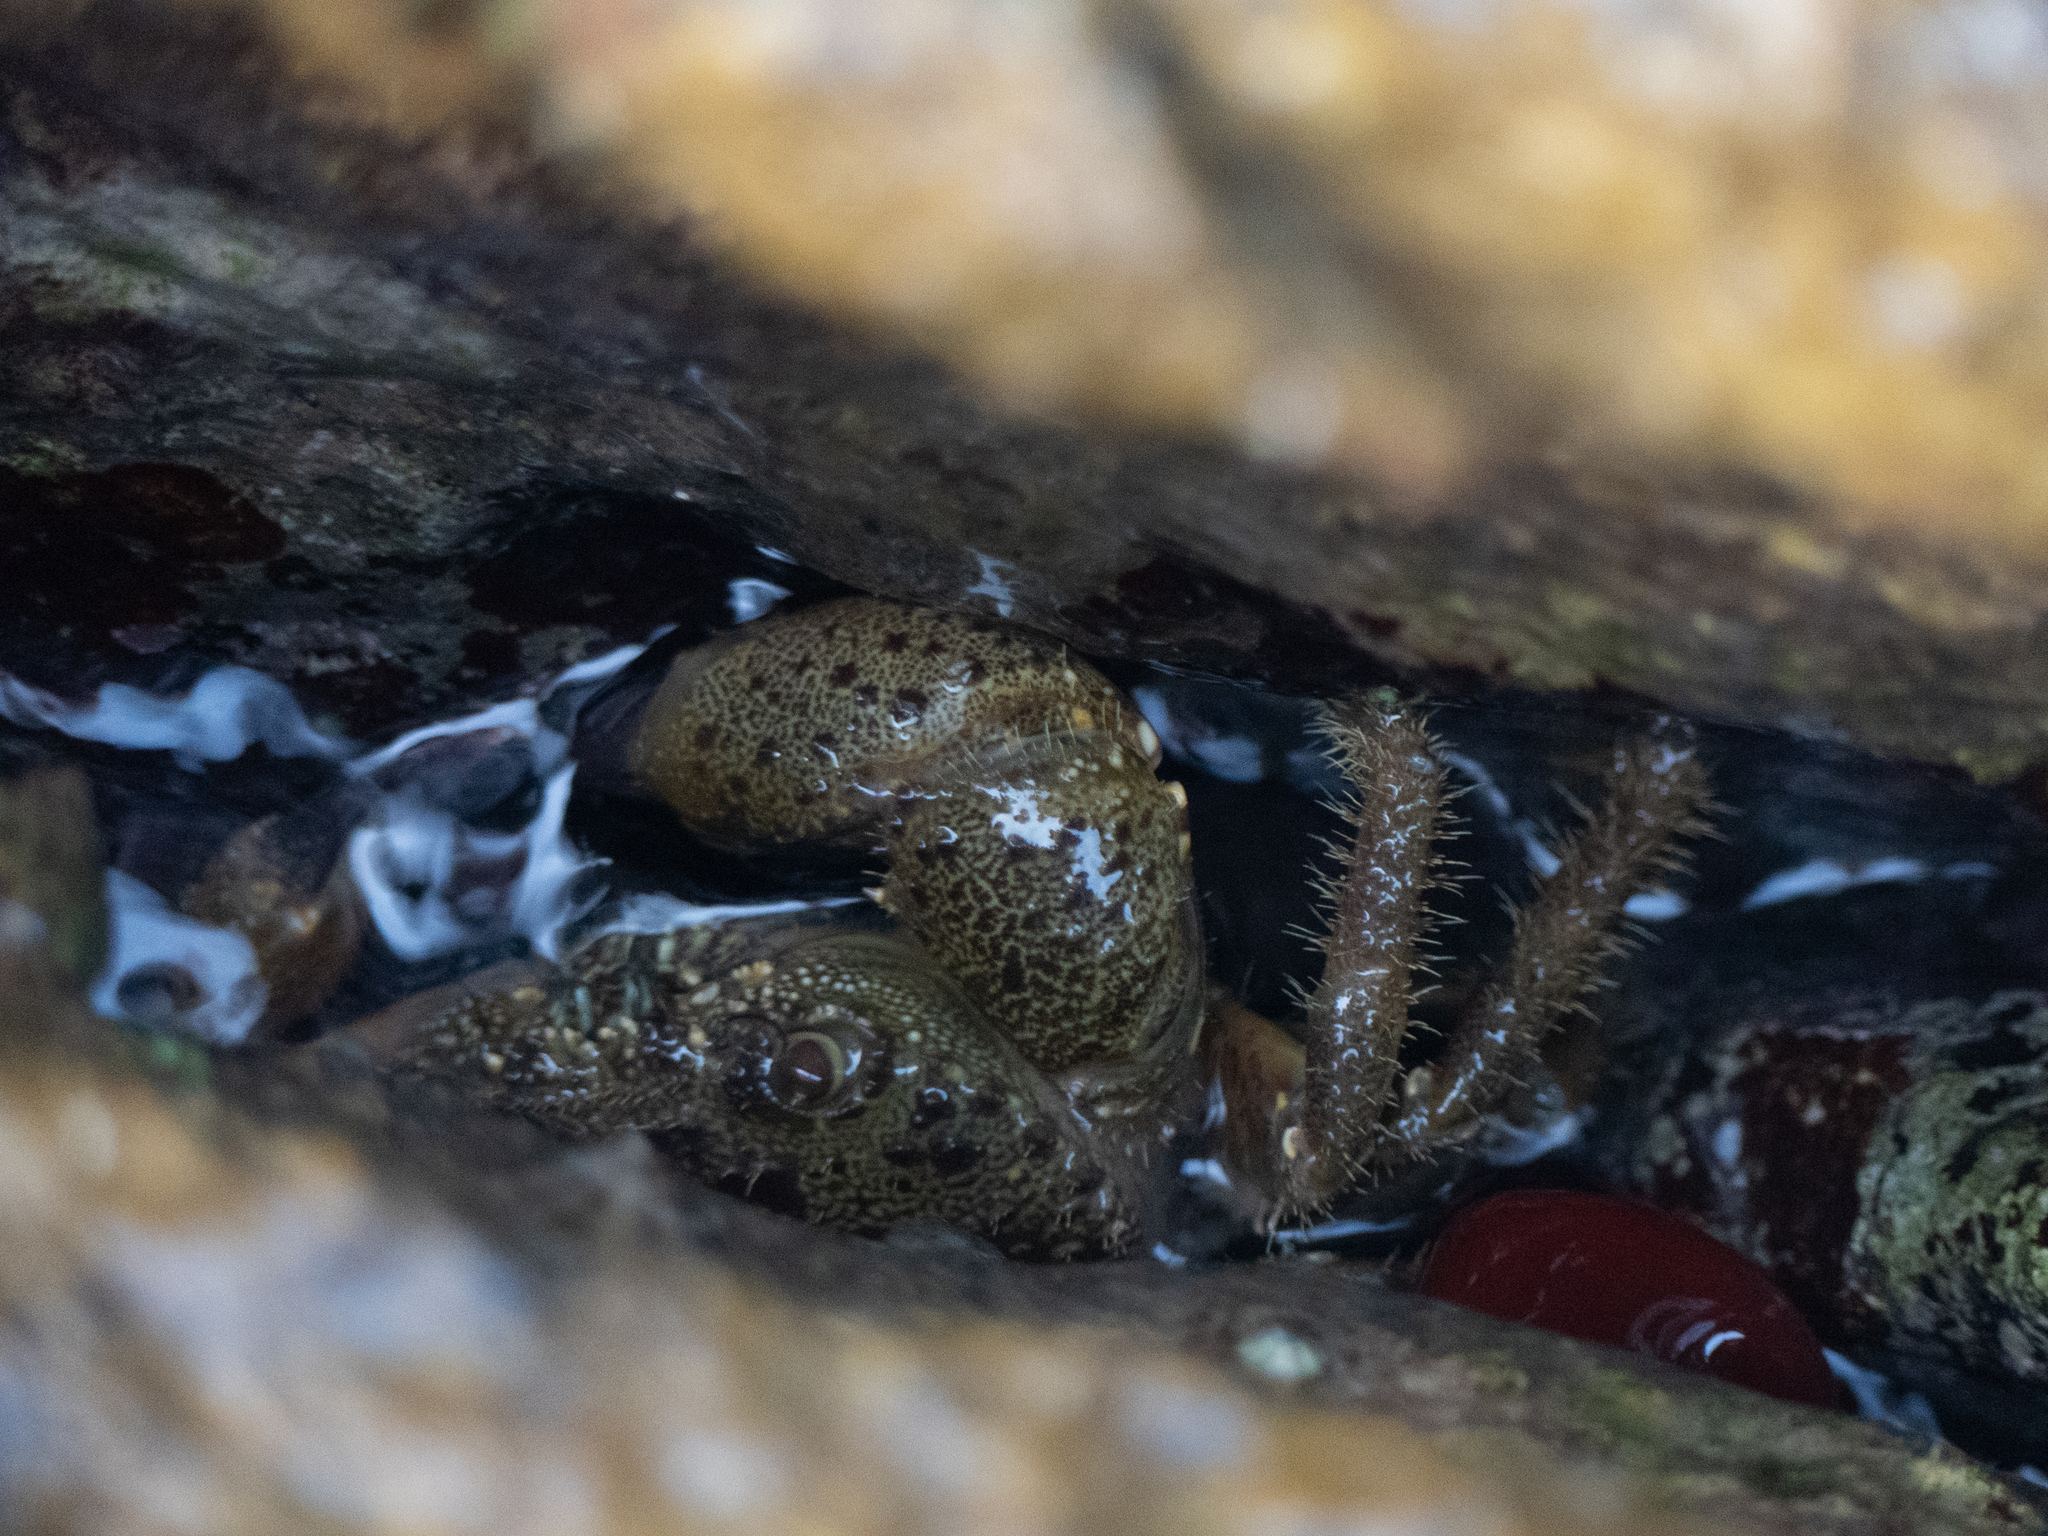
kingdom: Animalia
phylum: Arthropoda
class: Malacostraca
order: Decapoda
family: Eriphiidae
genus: Eriphia
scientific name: Eriphia verrucosa
